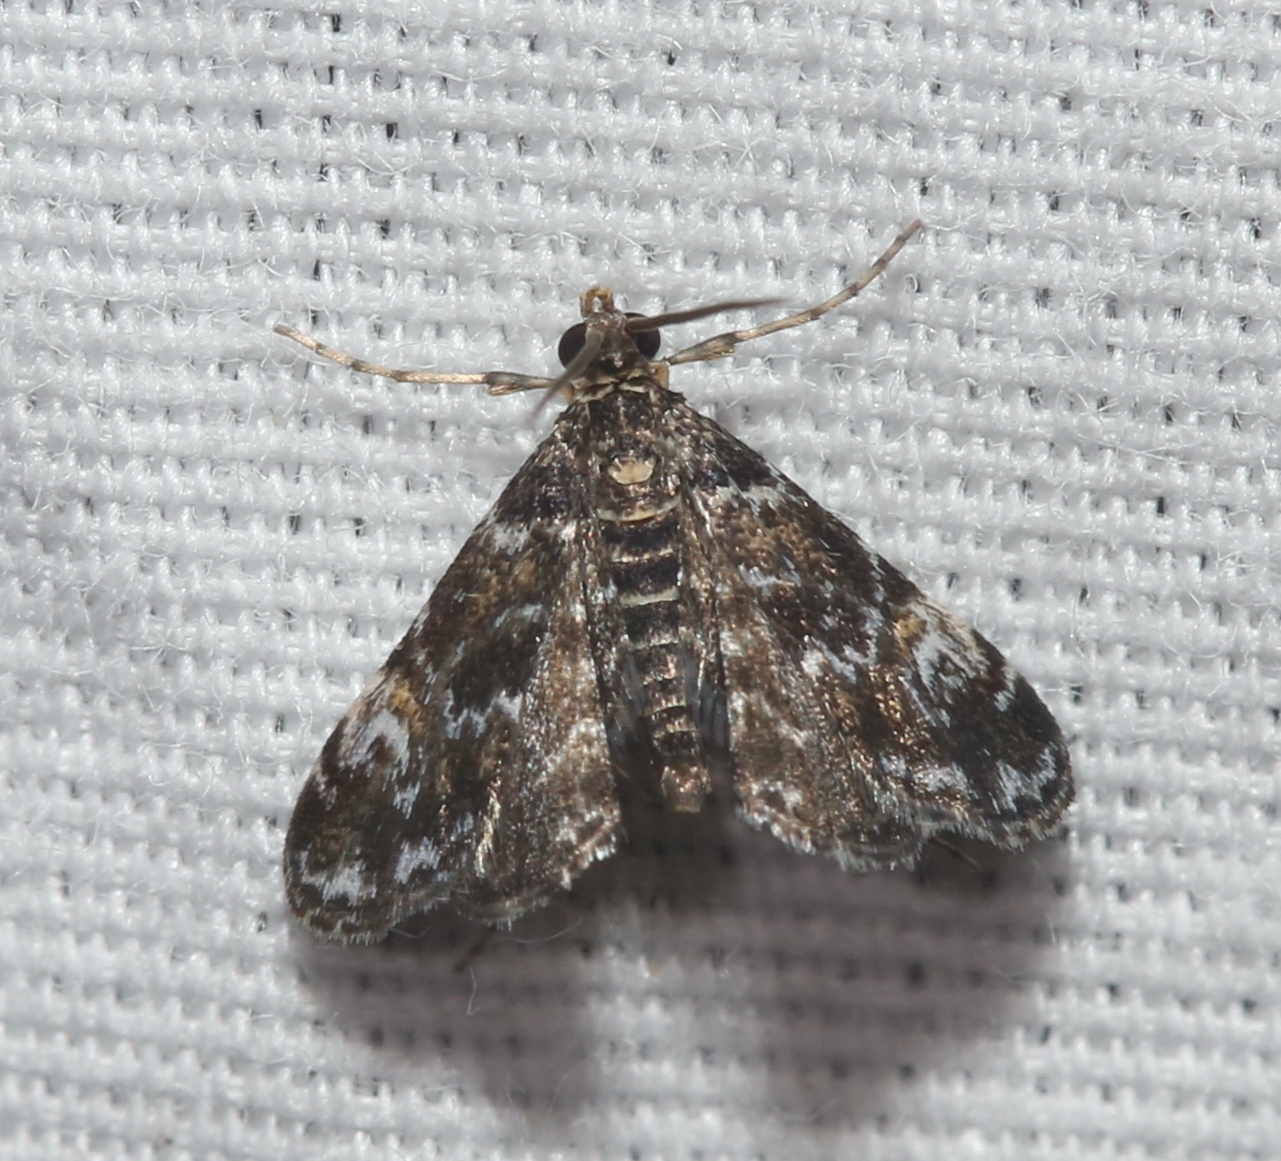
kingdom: Animalia
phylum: Arthropoda
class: Insecta
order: Lepidoptera
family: Crambidae
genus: Elophila
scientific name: Elophila obliteralis
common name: Waterlily leafcutter moth
